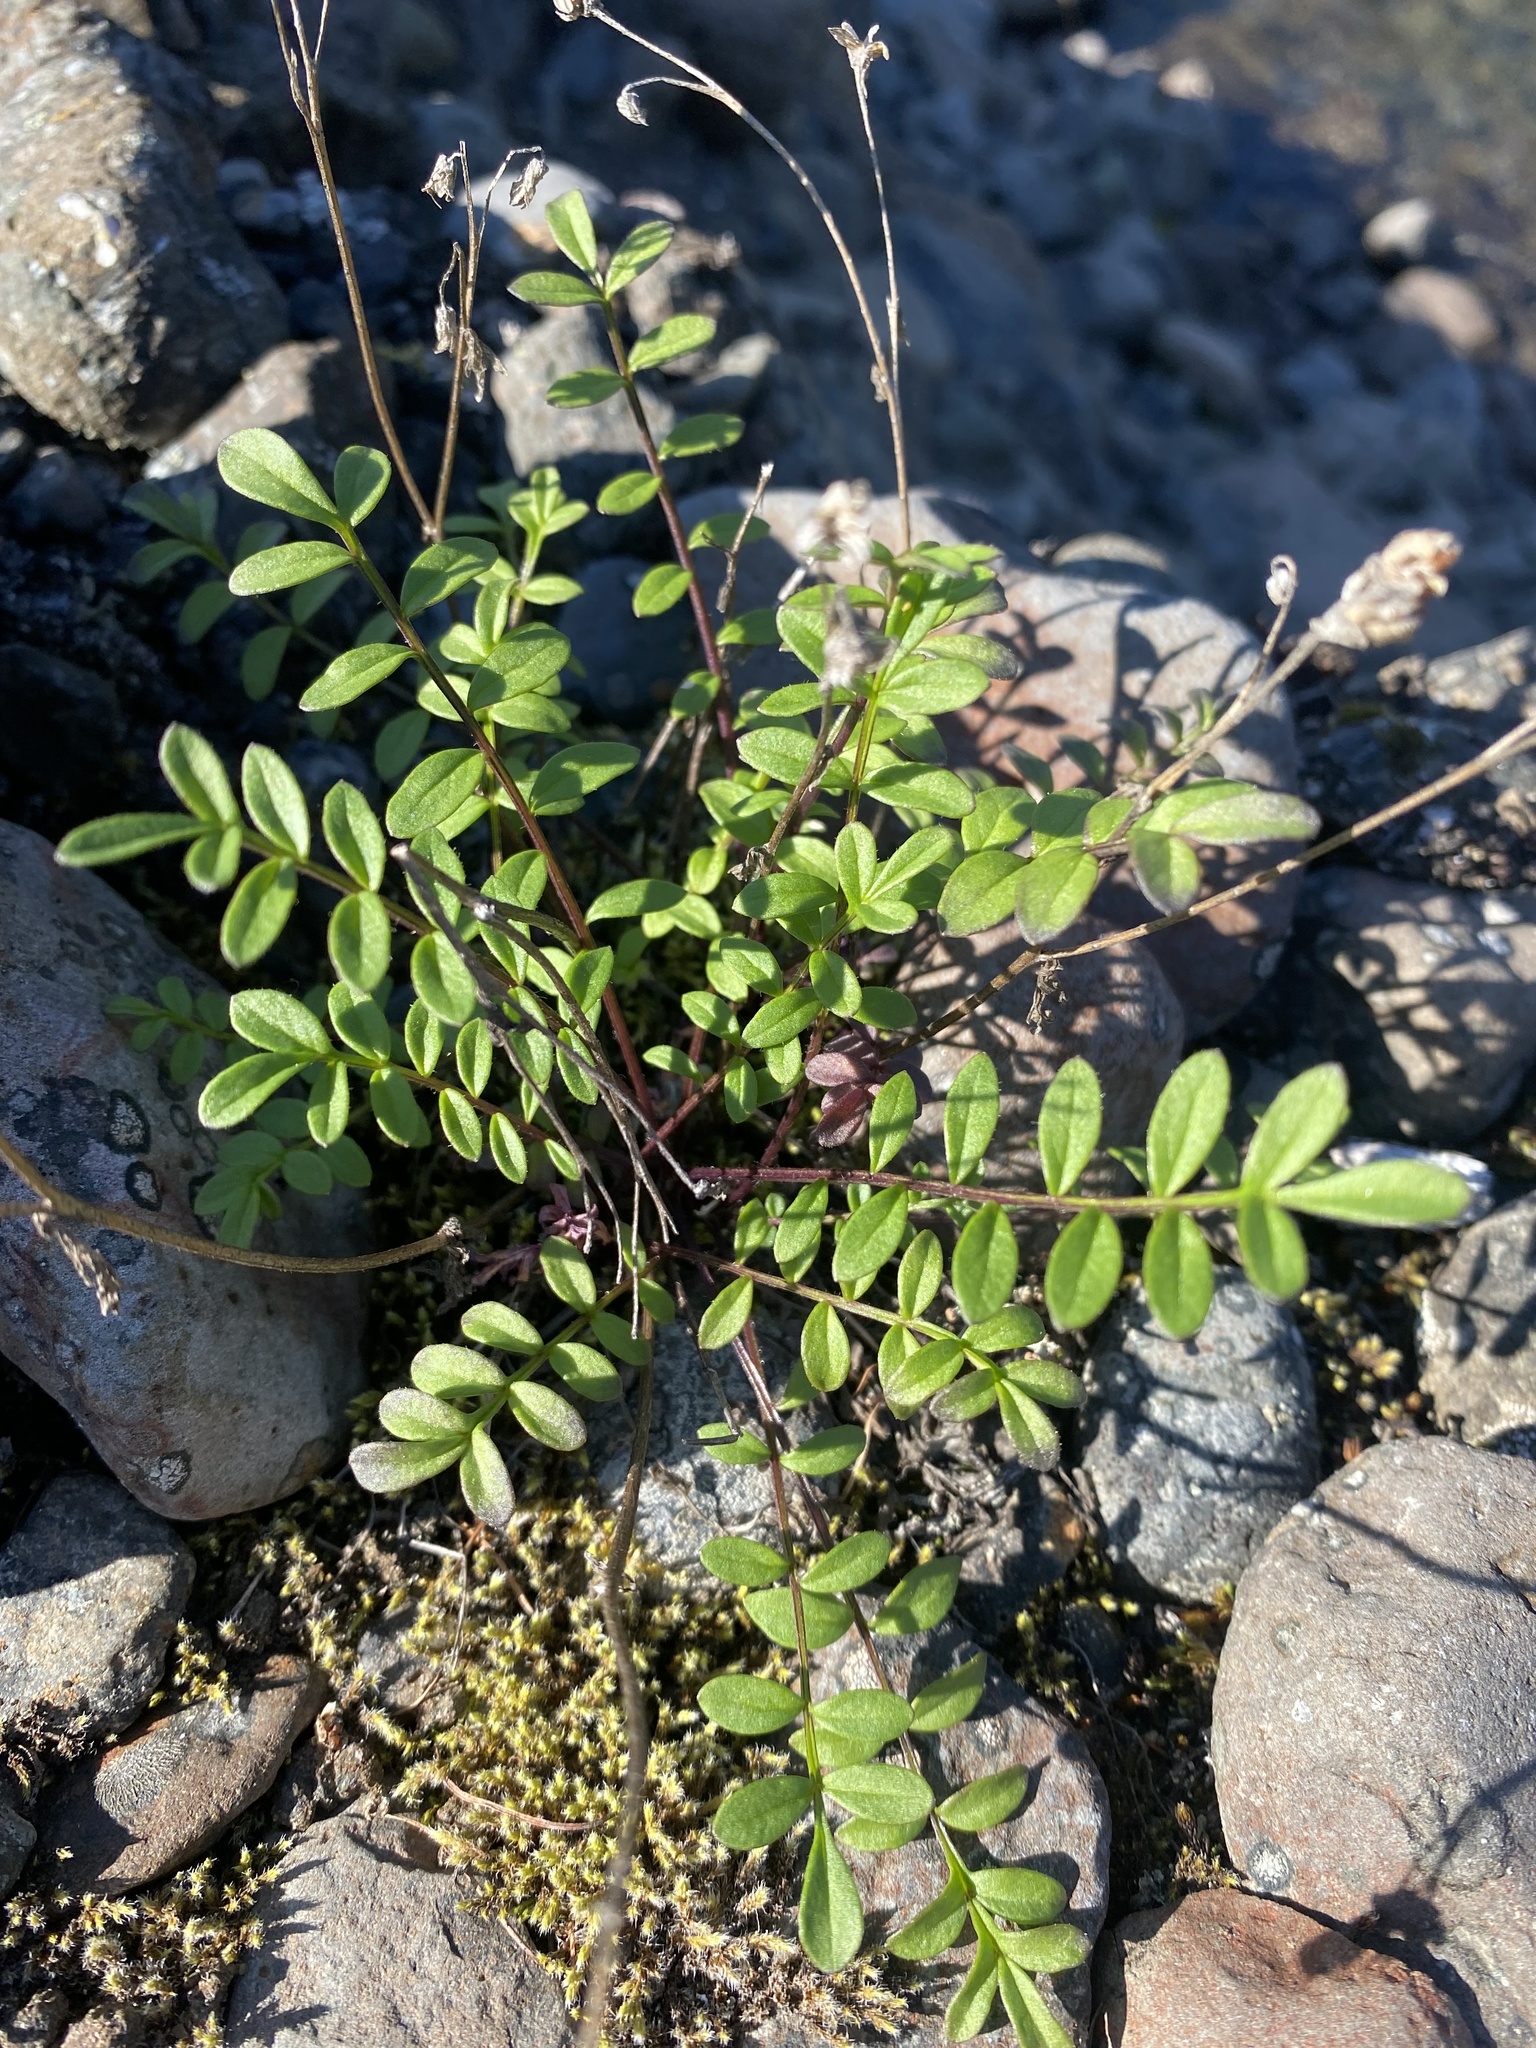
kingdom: Plantae
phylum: Tracheophyta
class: Magnoliopsida
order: Ericales
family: Polemoniaceae
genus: Polemonium
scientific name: Polemonium boreale
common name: Boreal jacob's-ladder
